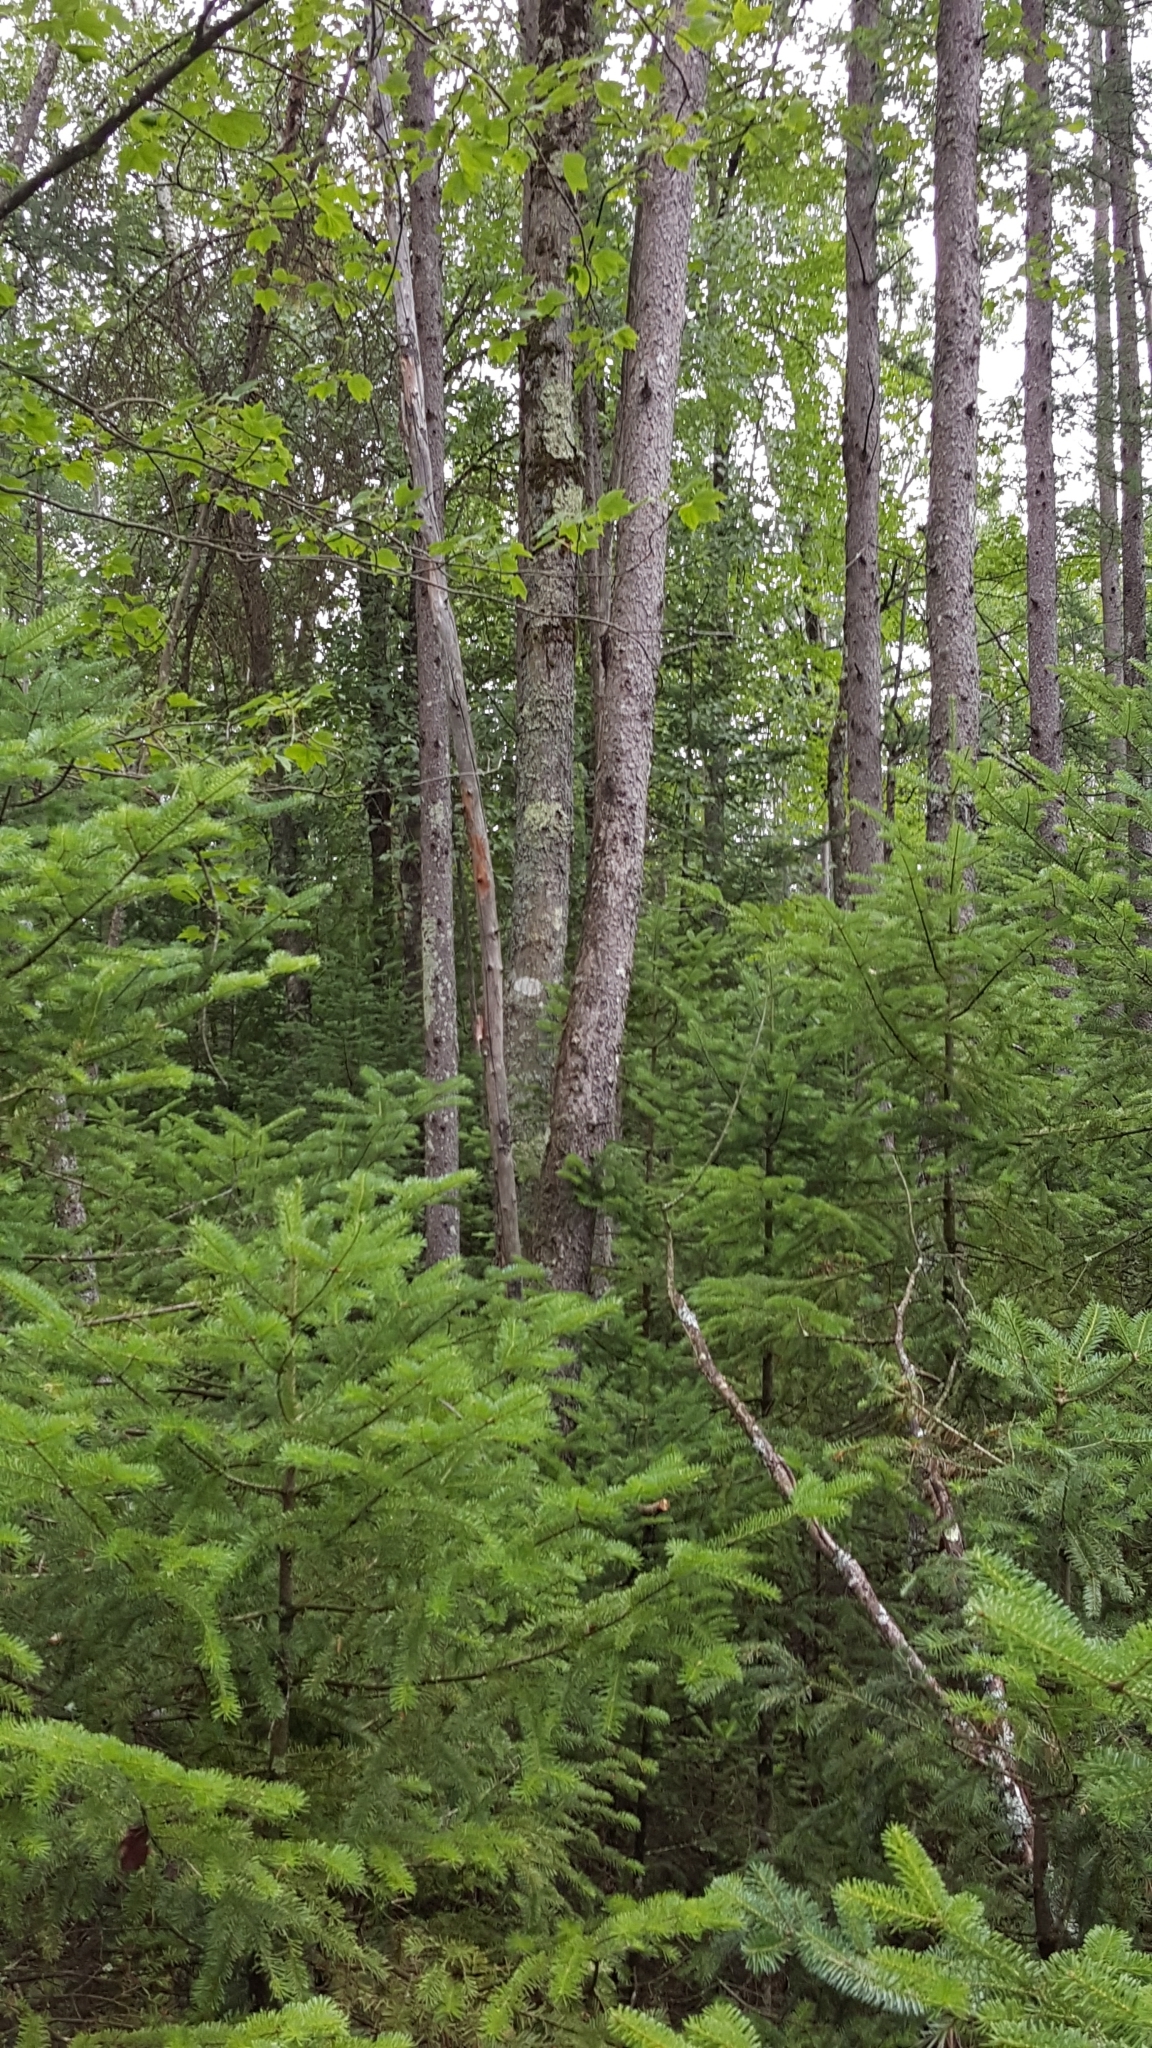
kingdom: Plantae
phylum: Tracheophyta
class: Pinopsida
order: Pinales
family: Pinaceae
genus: Abies
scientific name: Abies balsamea
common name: Balsam fir
